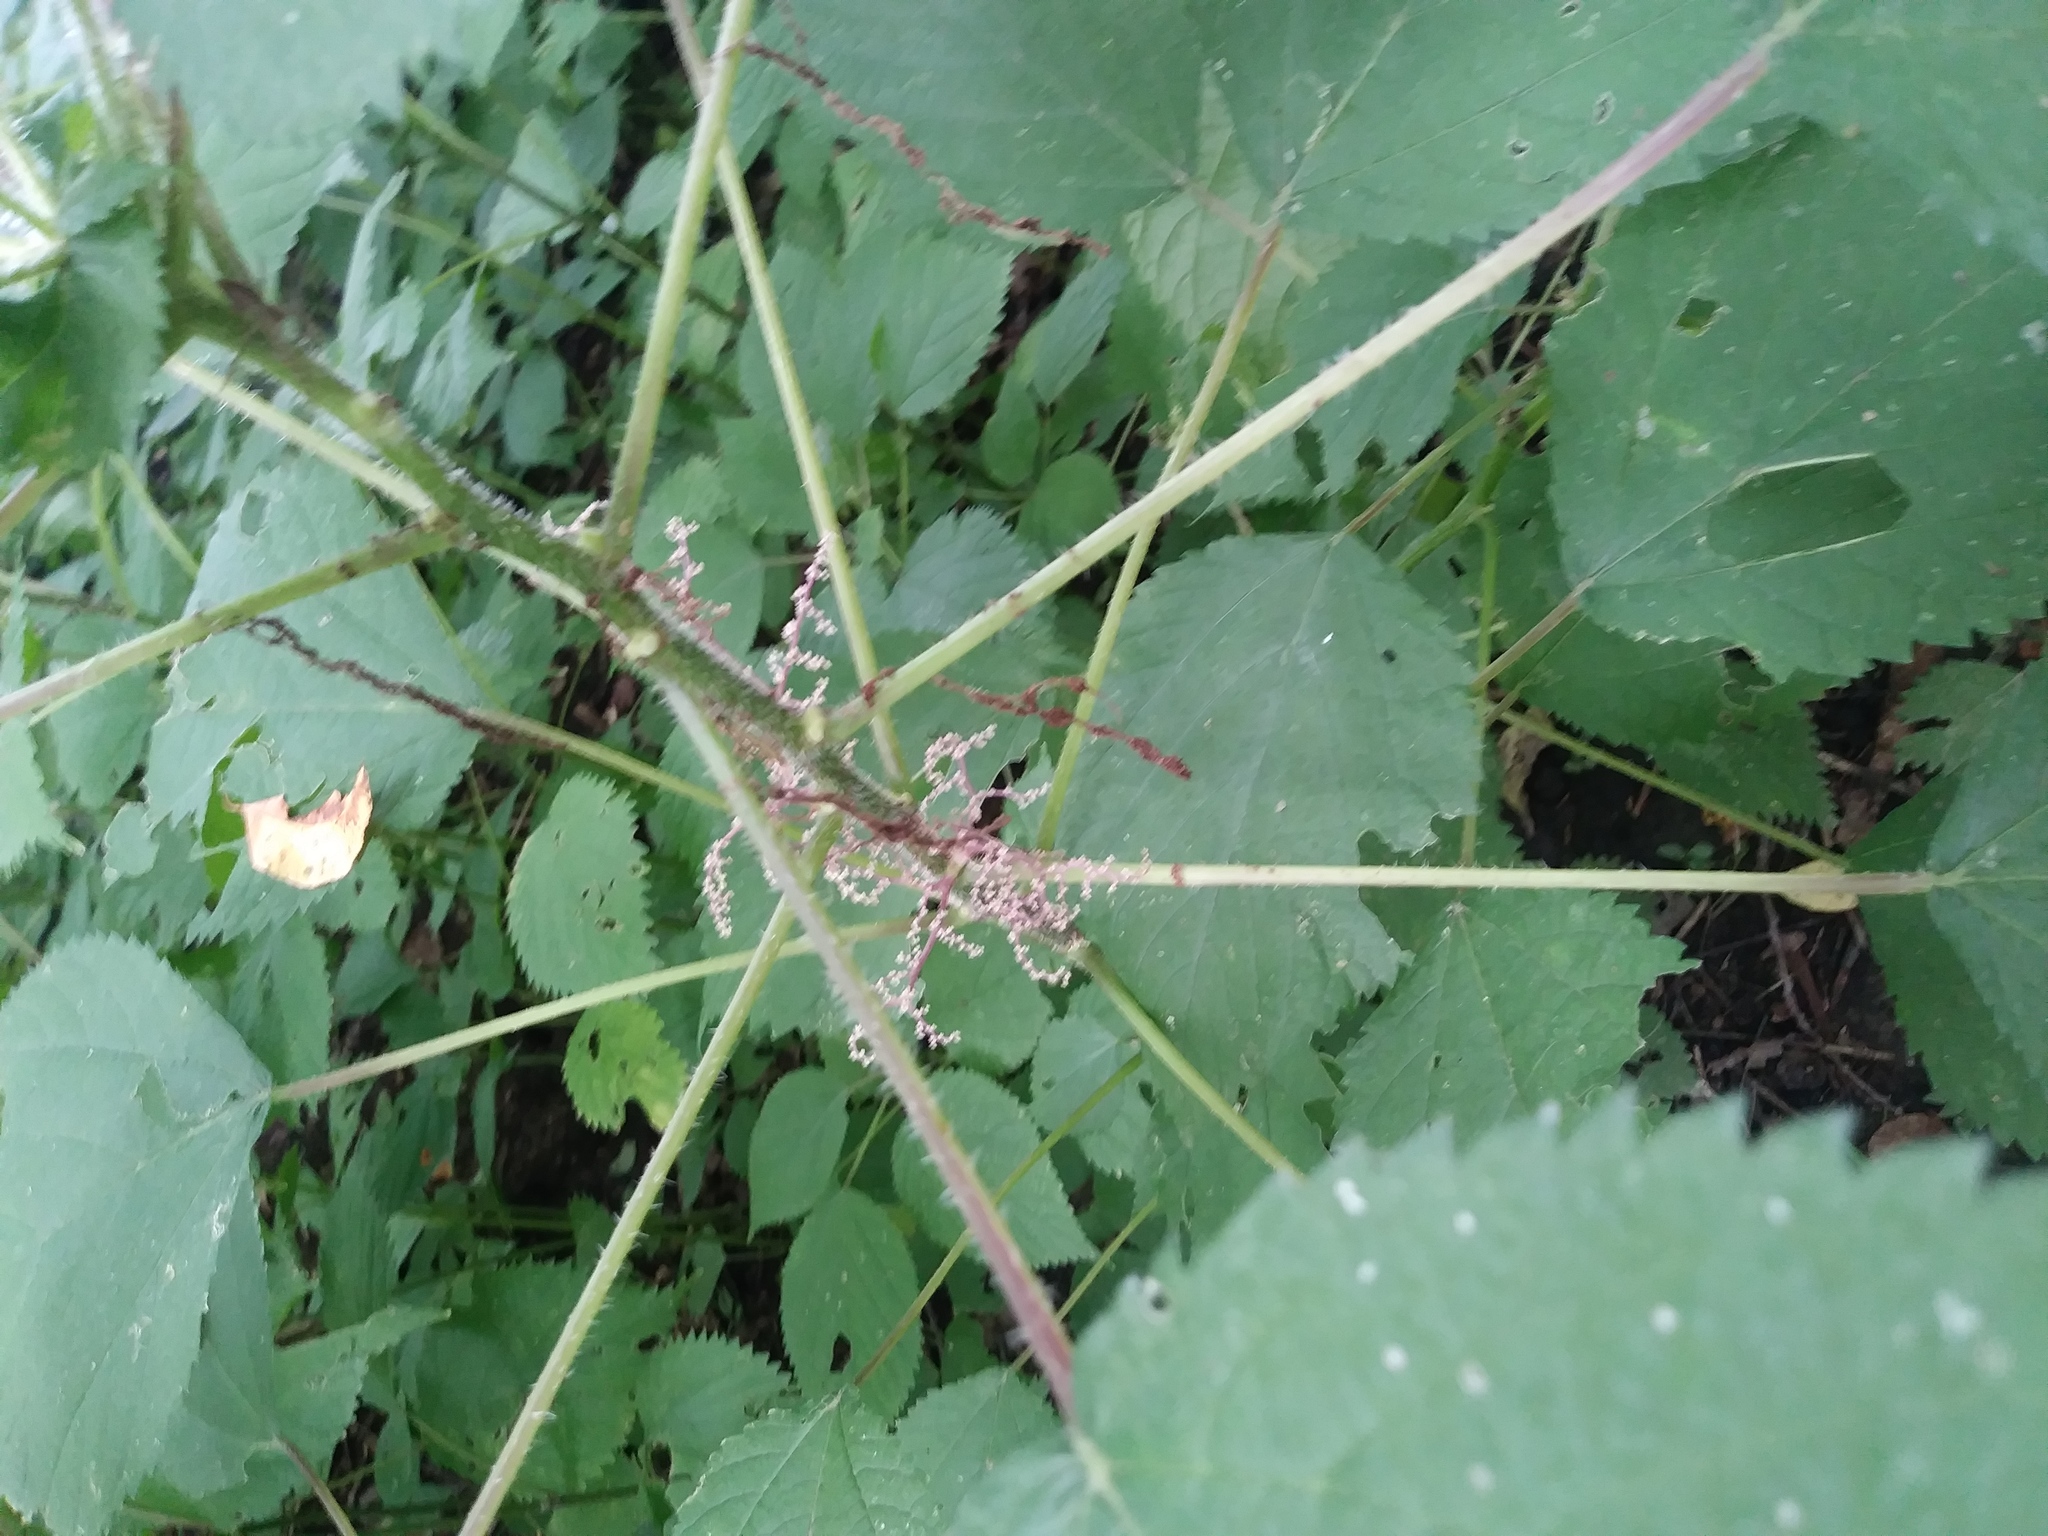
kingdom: Plantae
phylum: Tracheophyta
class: Magnoliopsida
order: Rosales
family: Urticaceae
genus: Laportea
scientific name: Laportea canadensis
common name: Canada nettle
